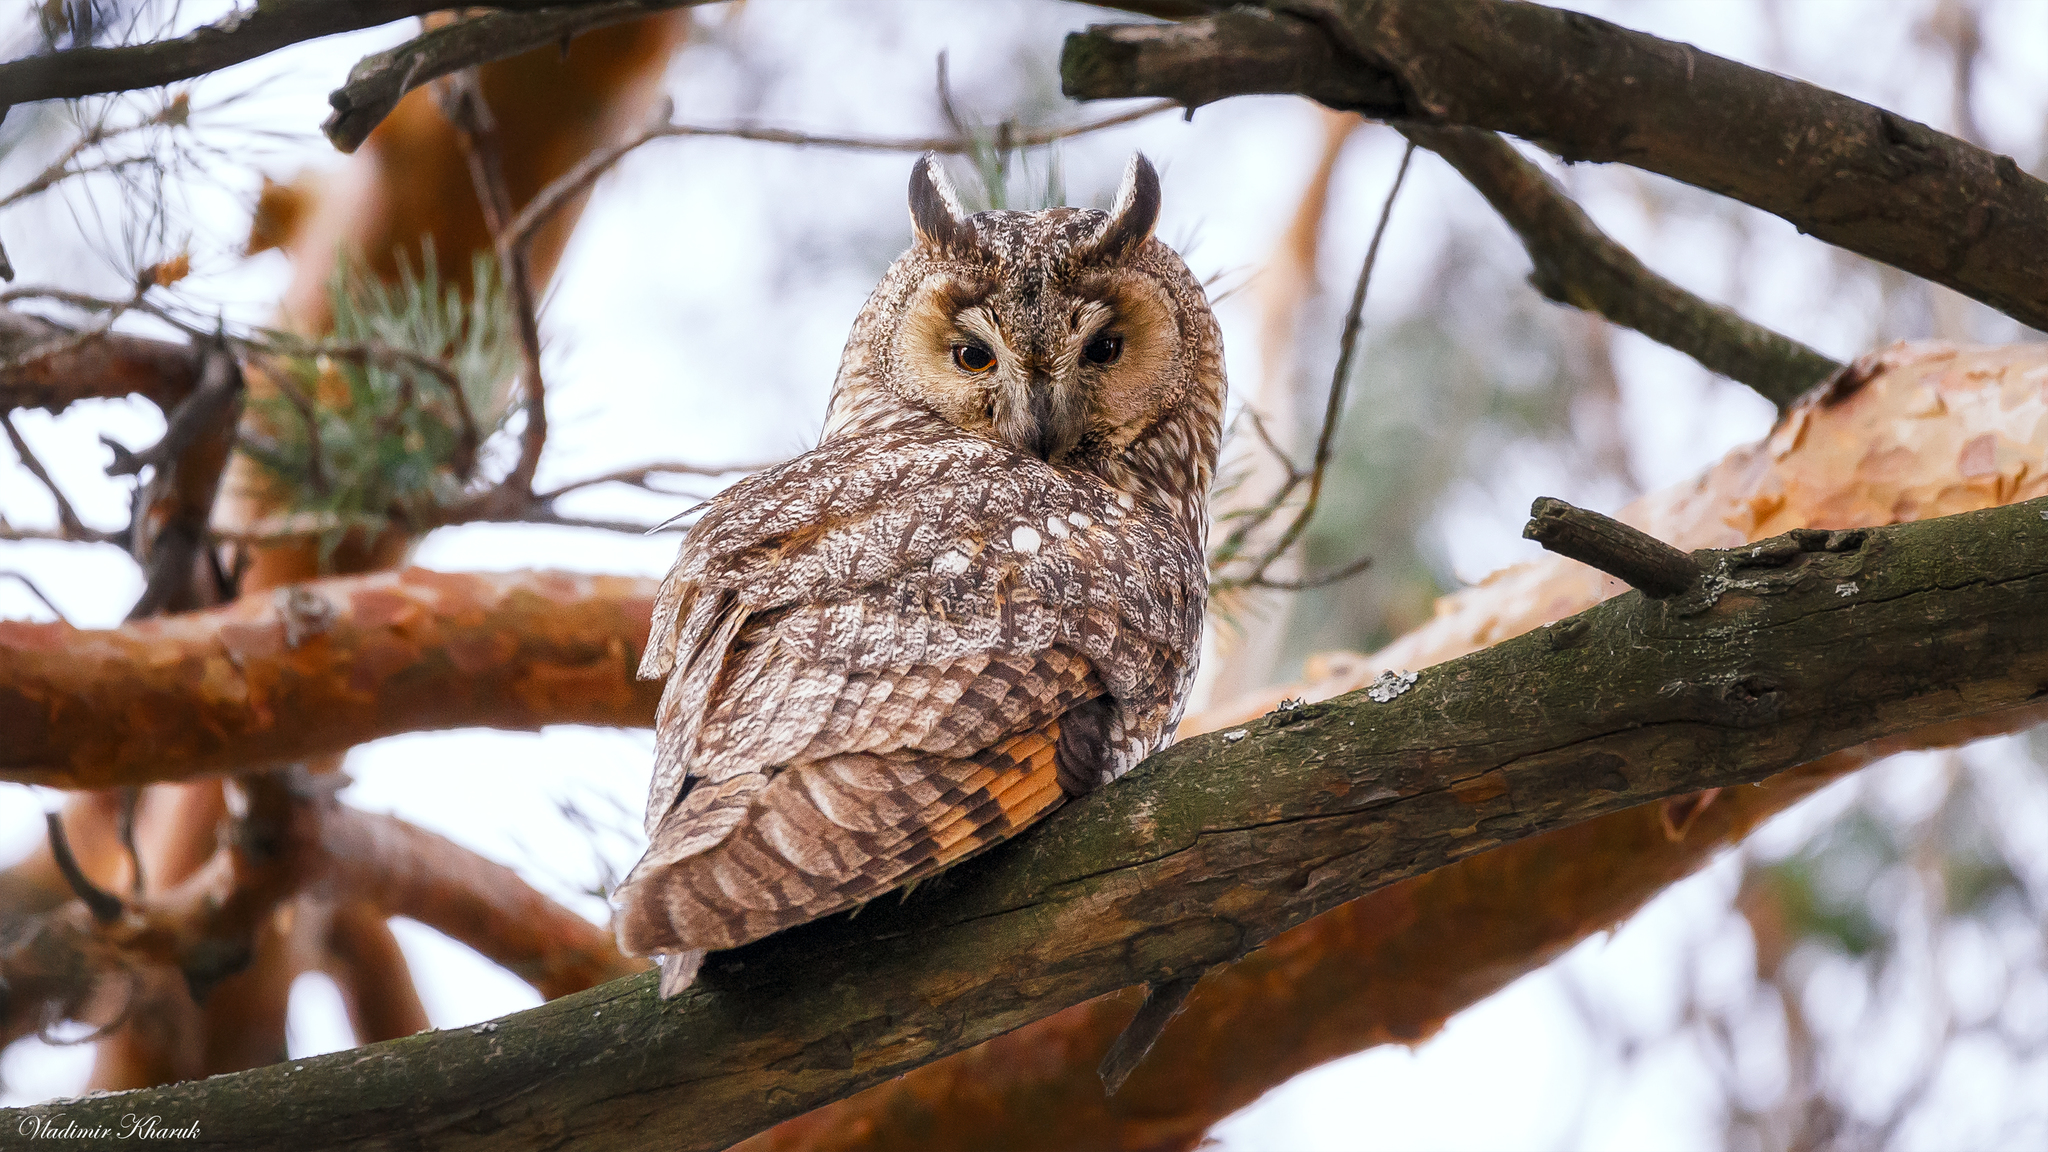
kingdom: Animalia
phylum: Chordata
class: Aves
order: Strigiformes
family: Strigidae
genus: Asio
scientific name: Asio otus
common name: Long-eared owl
